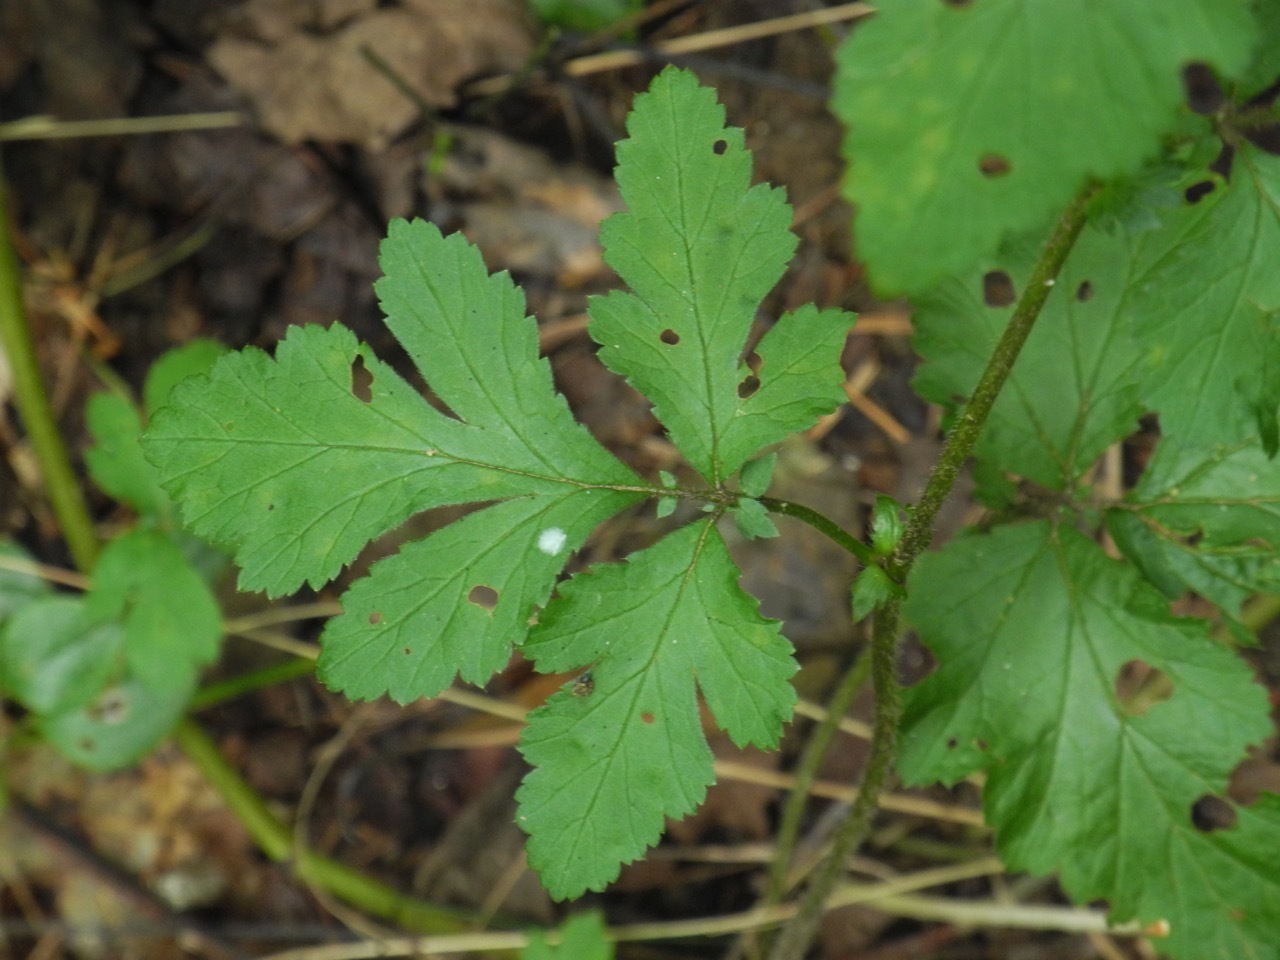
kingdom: Plantae
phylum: Tracheophyta
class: Magnoliopsida
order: Rosales
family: Rosaceae
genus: Geum
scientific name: Geum canadense
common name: White avens
